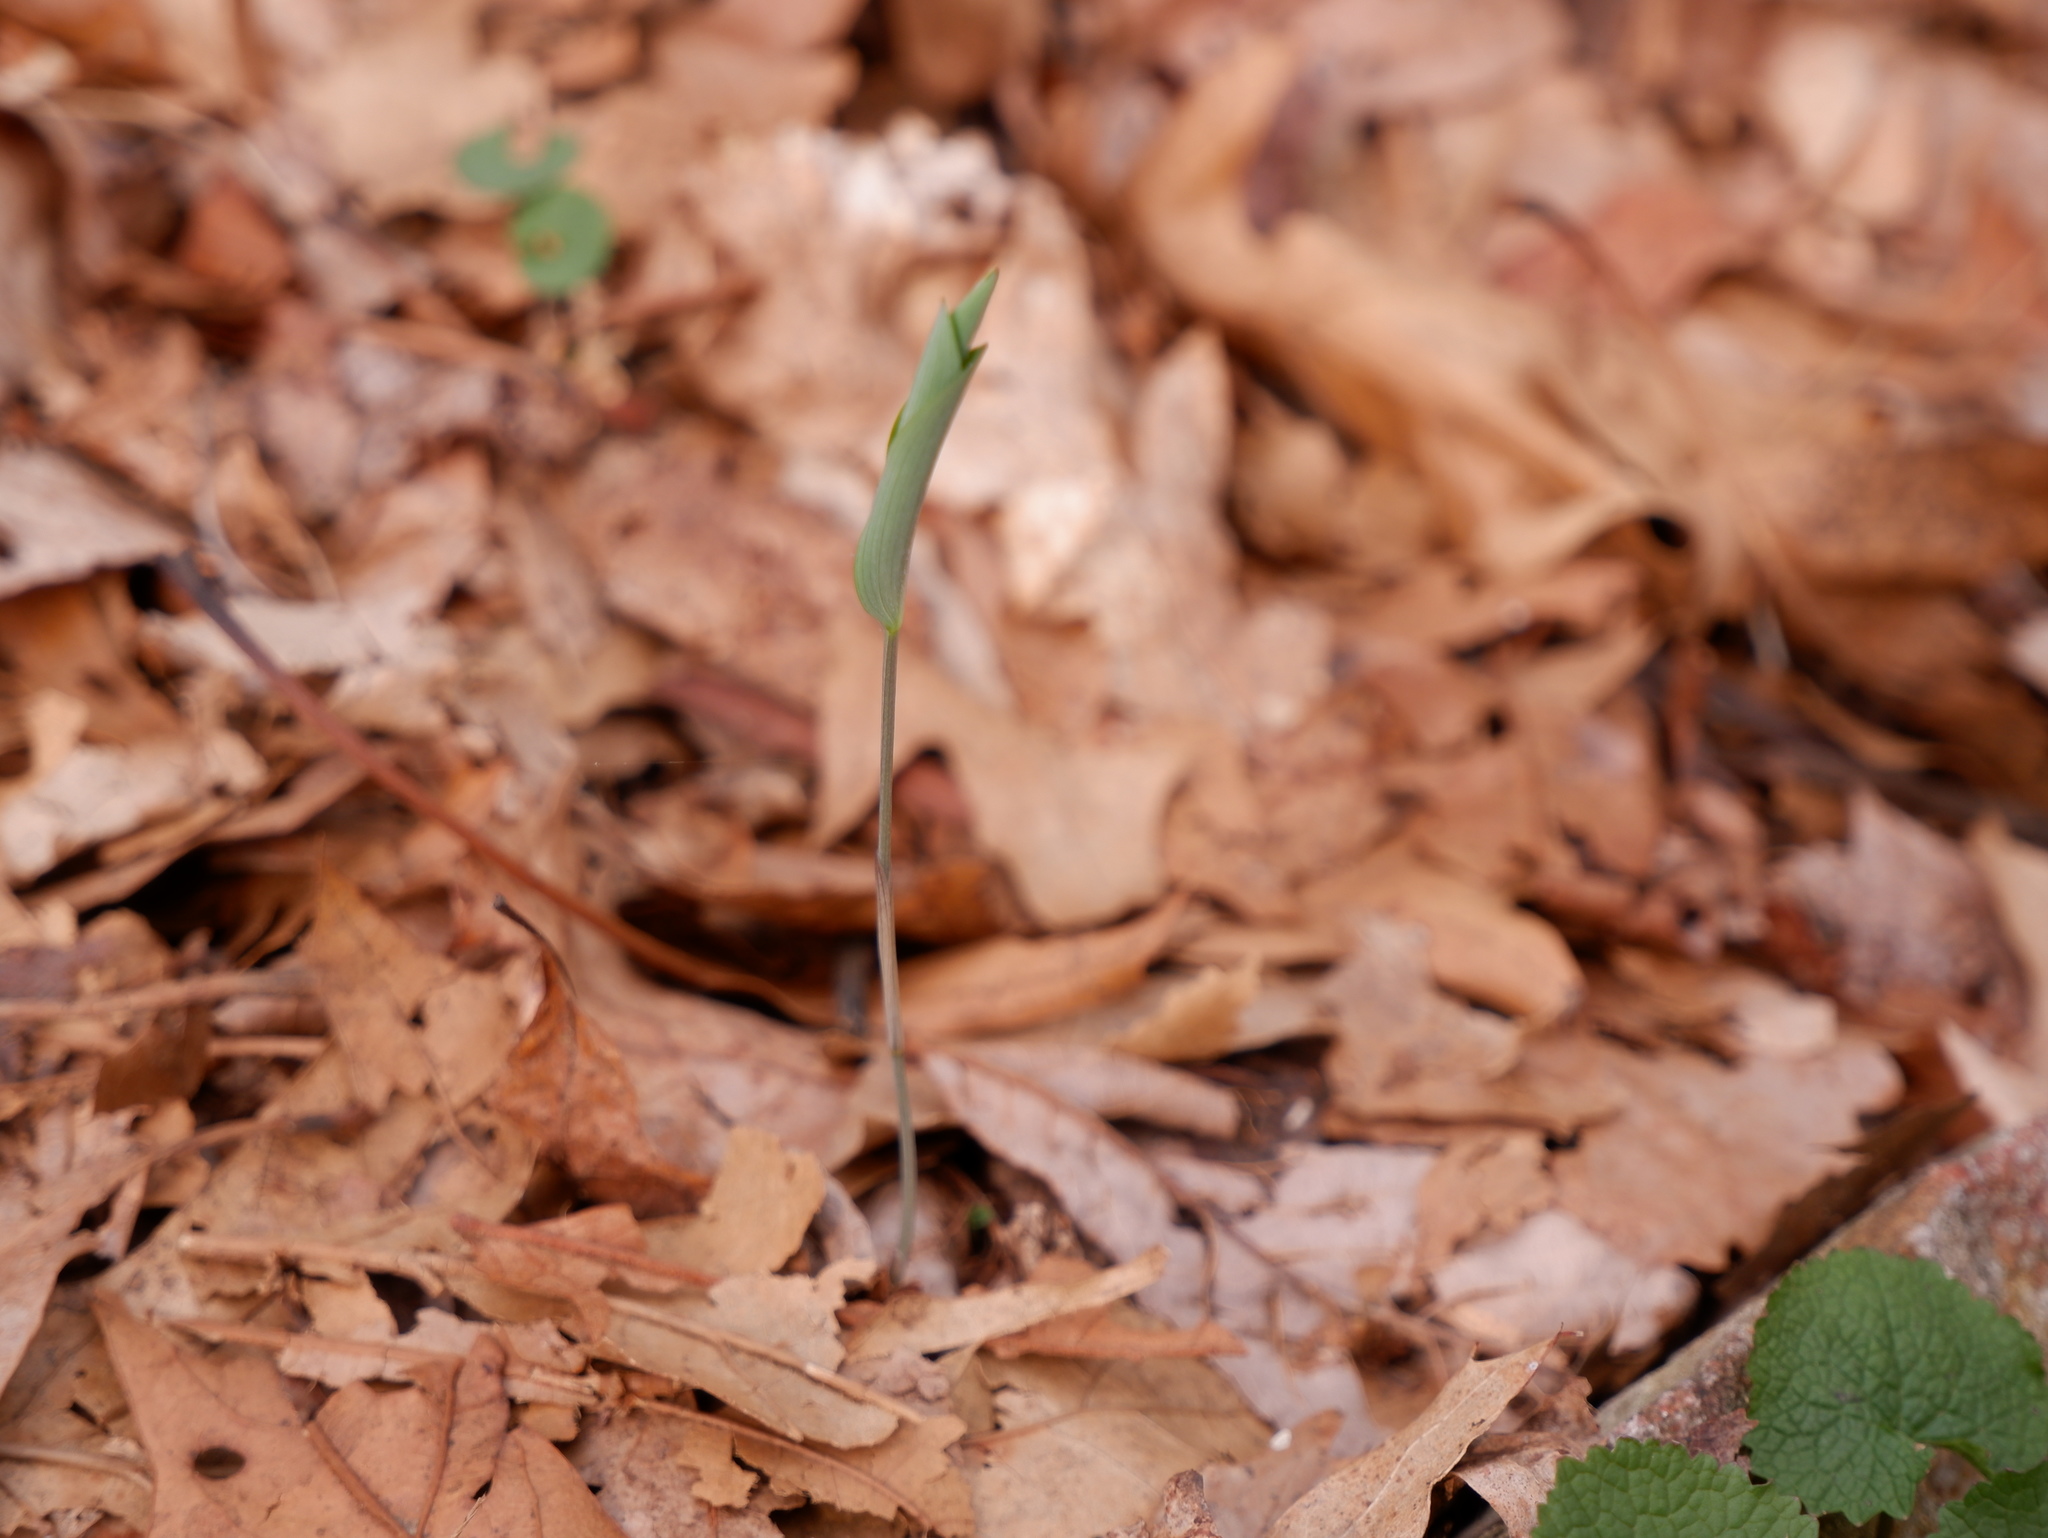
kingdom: Plantae
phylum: Tracheophyta
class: Liliopsida
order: Asparagales
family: Asparagaceae
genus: Polygonatum
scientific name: Polygonatum pubescens
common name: Downy solomon's seal
